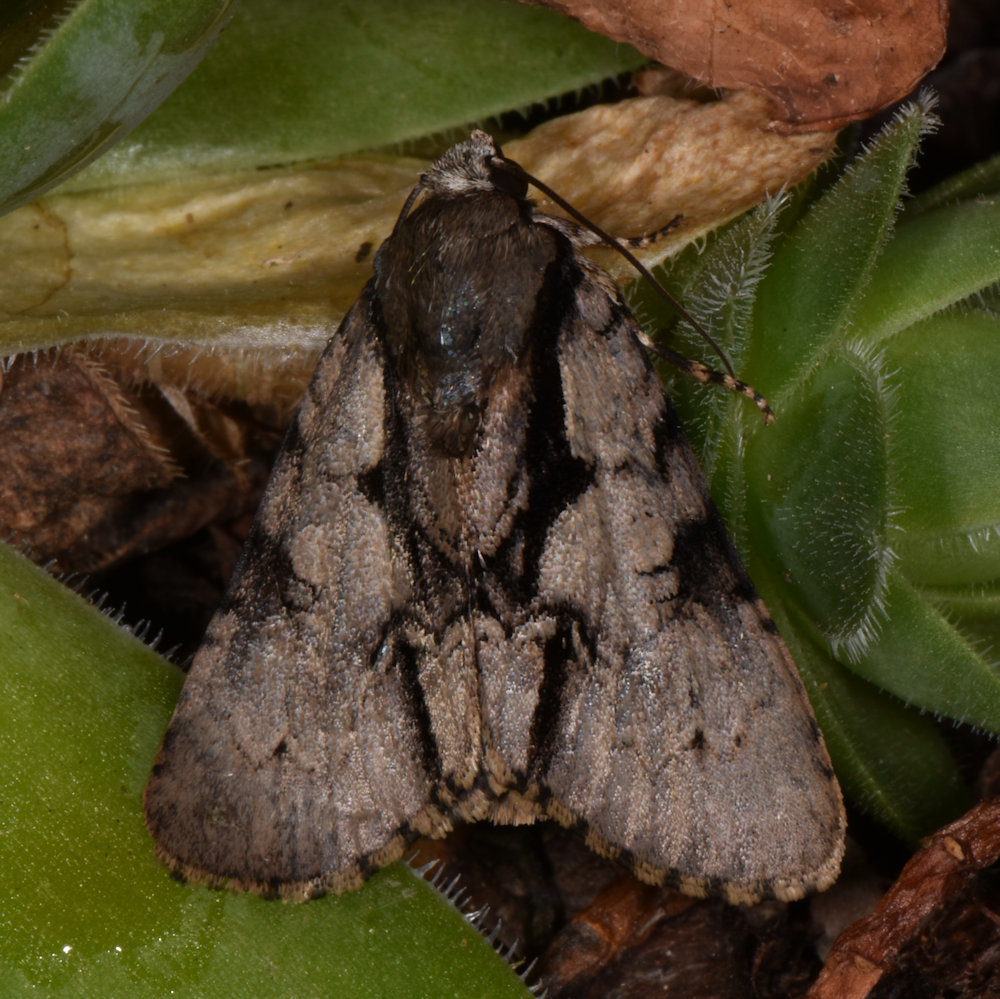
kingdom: Animalia
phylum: Arthropoda
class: Insecta
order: Lepidoptera
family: Noctuidae
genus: Acronicta
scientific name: Acronicta funeralis
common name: Funerary dagger
